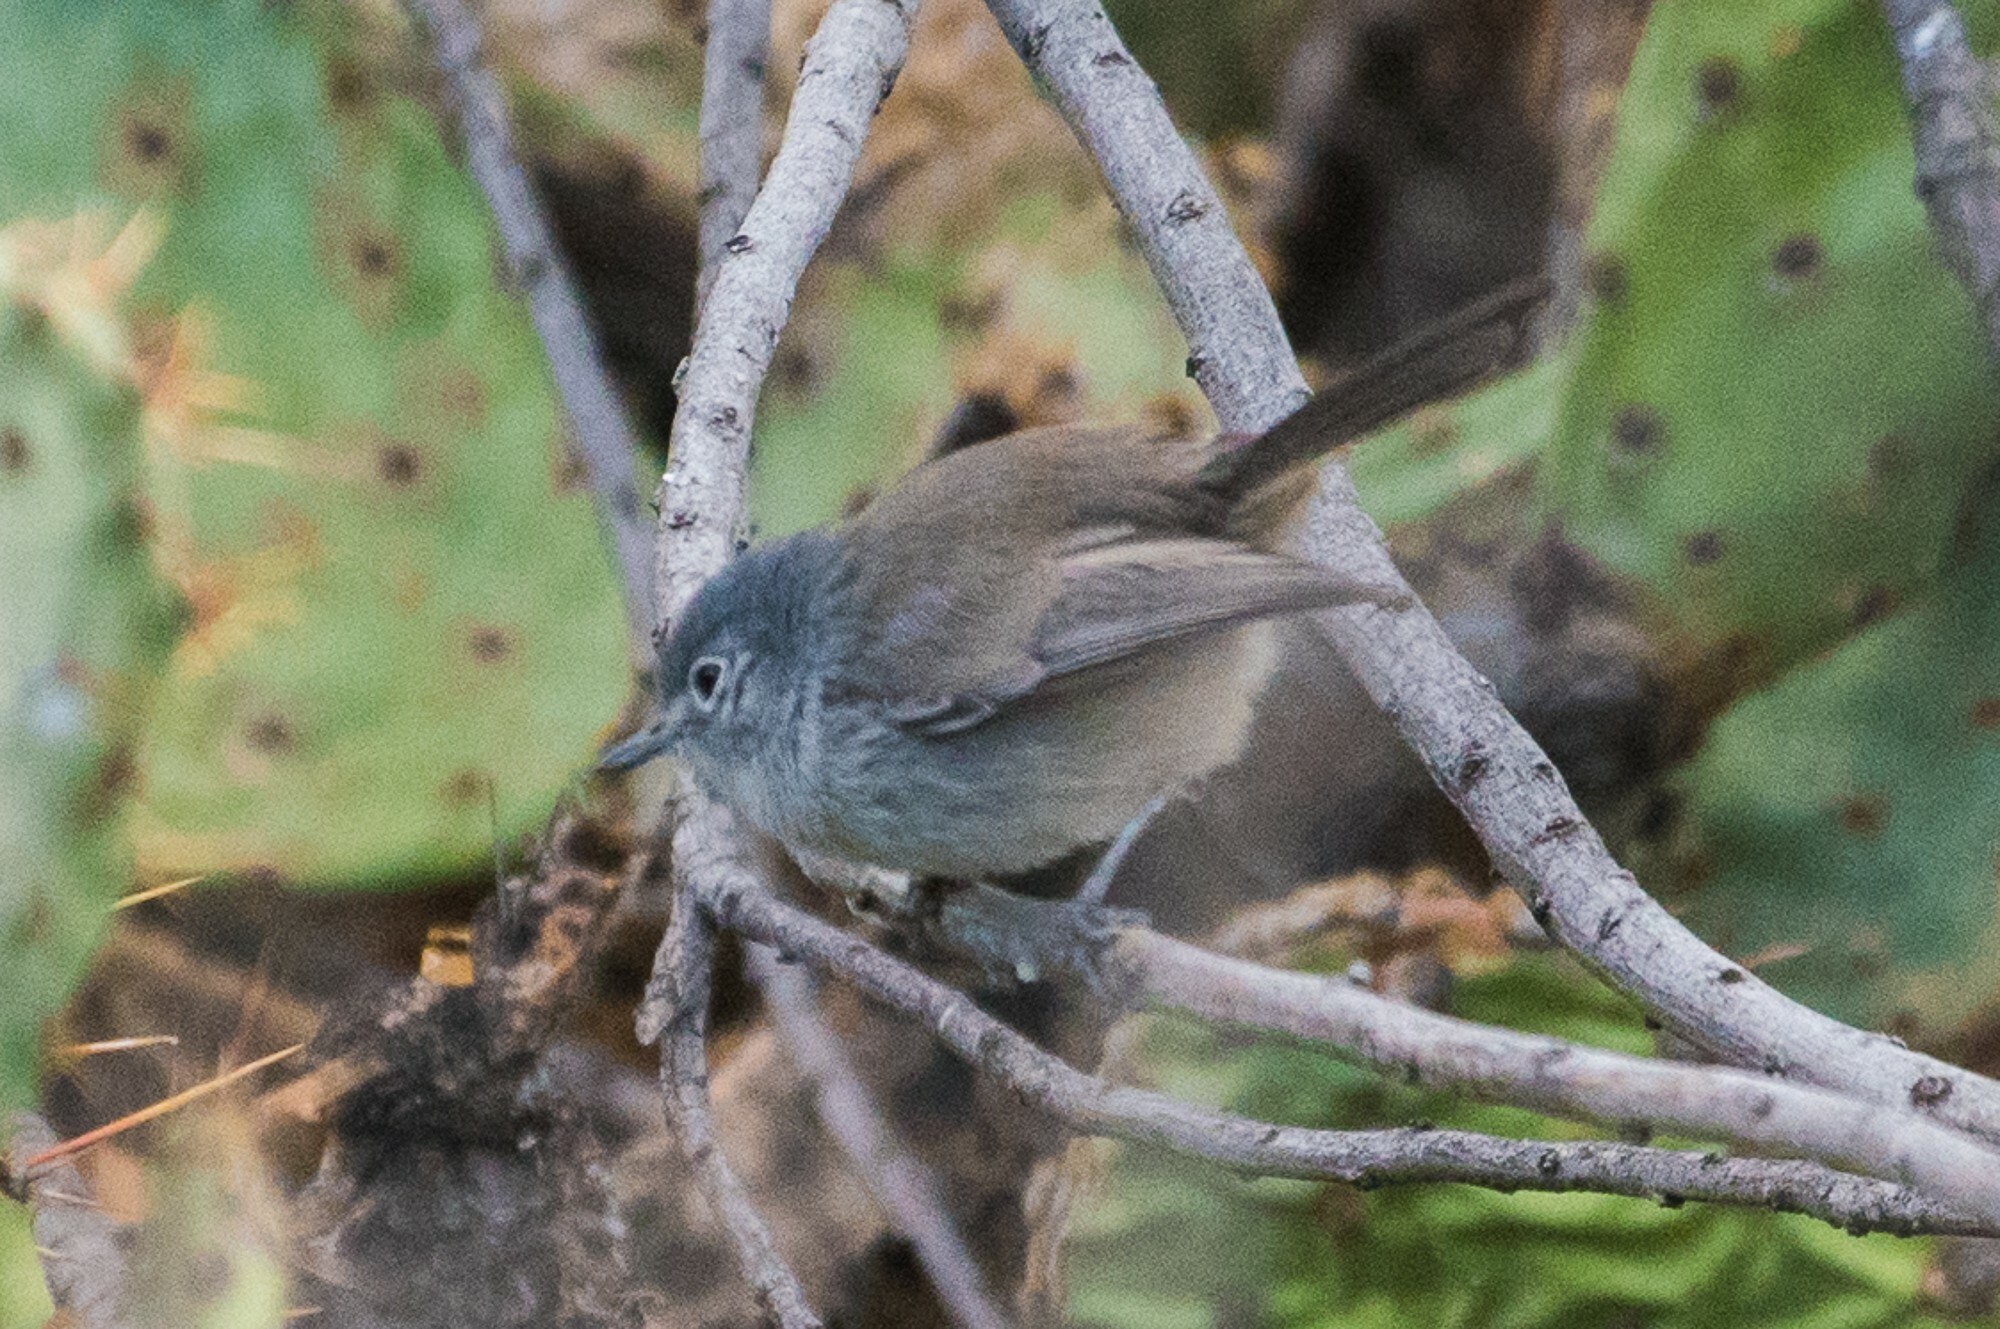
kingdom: Animalia
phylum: Chordata
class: Aves
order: Passeriformes
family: Polioptilidae
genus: Polioptila
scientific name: Polioptila californica
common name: California gnatcatcher
